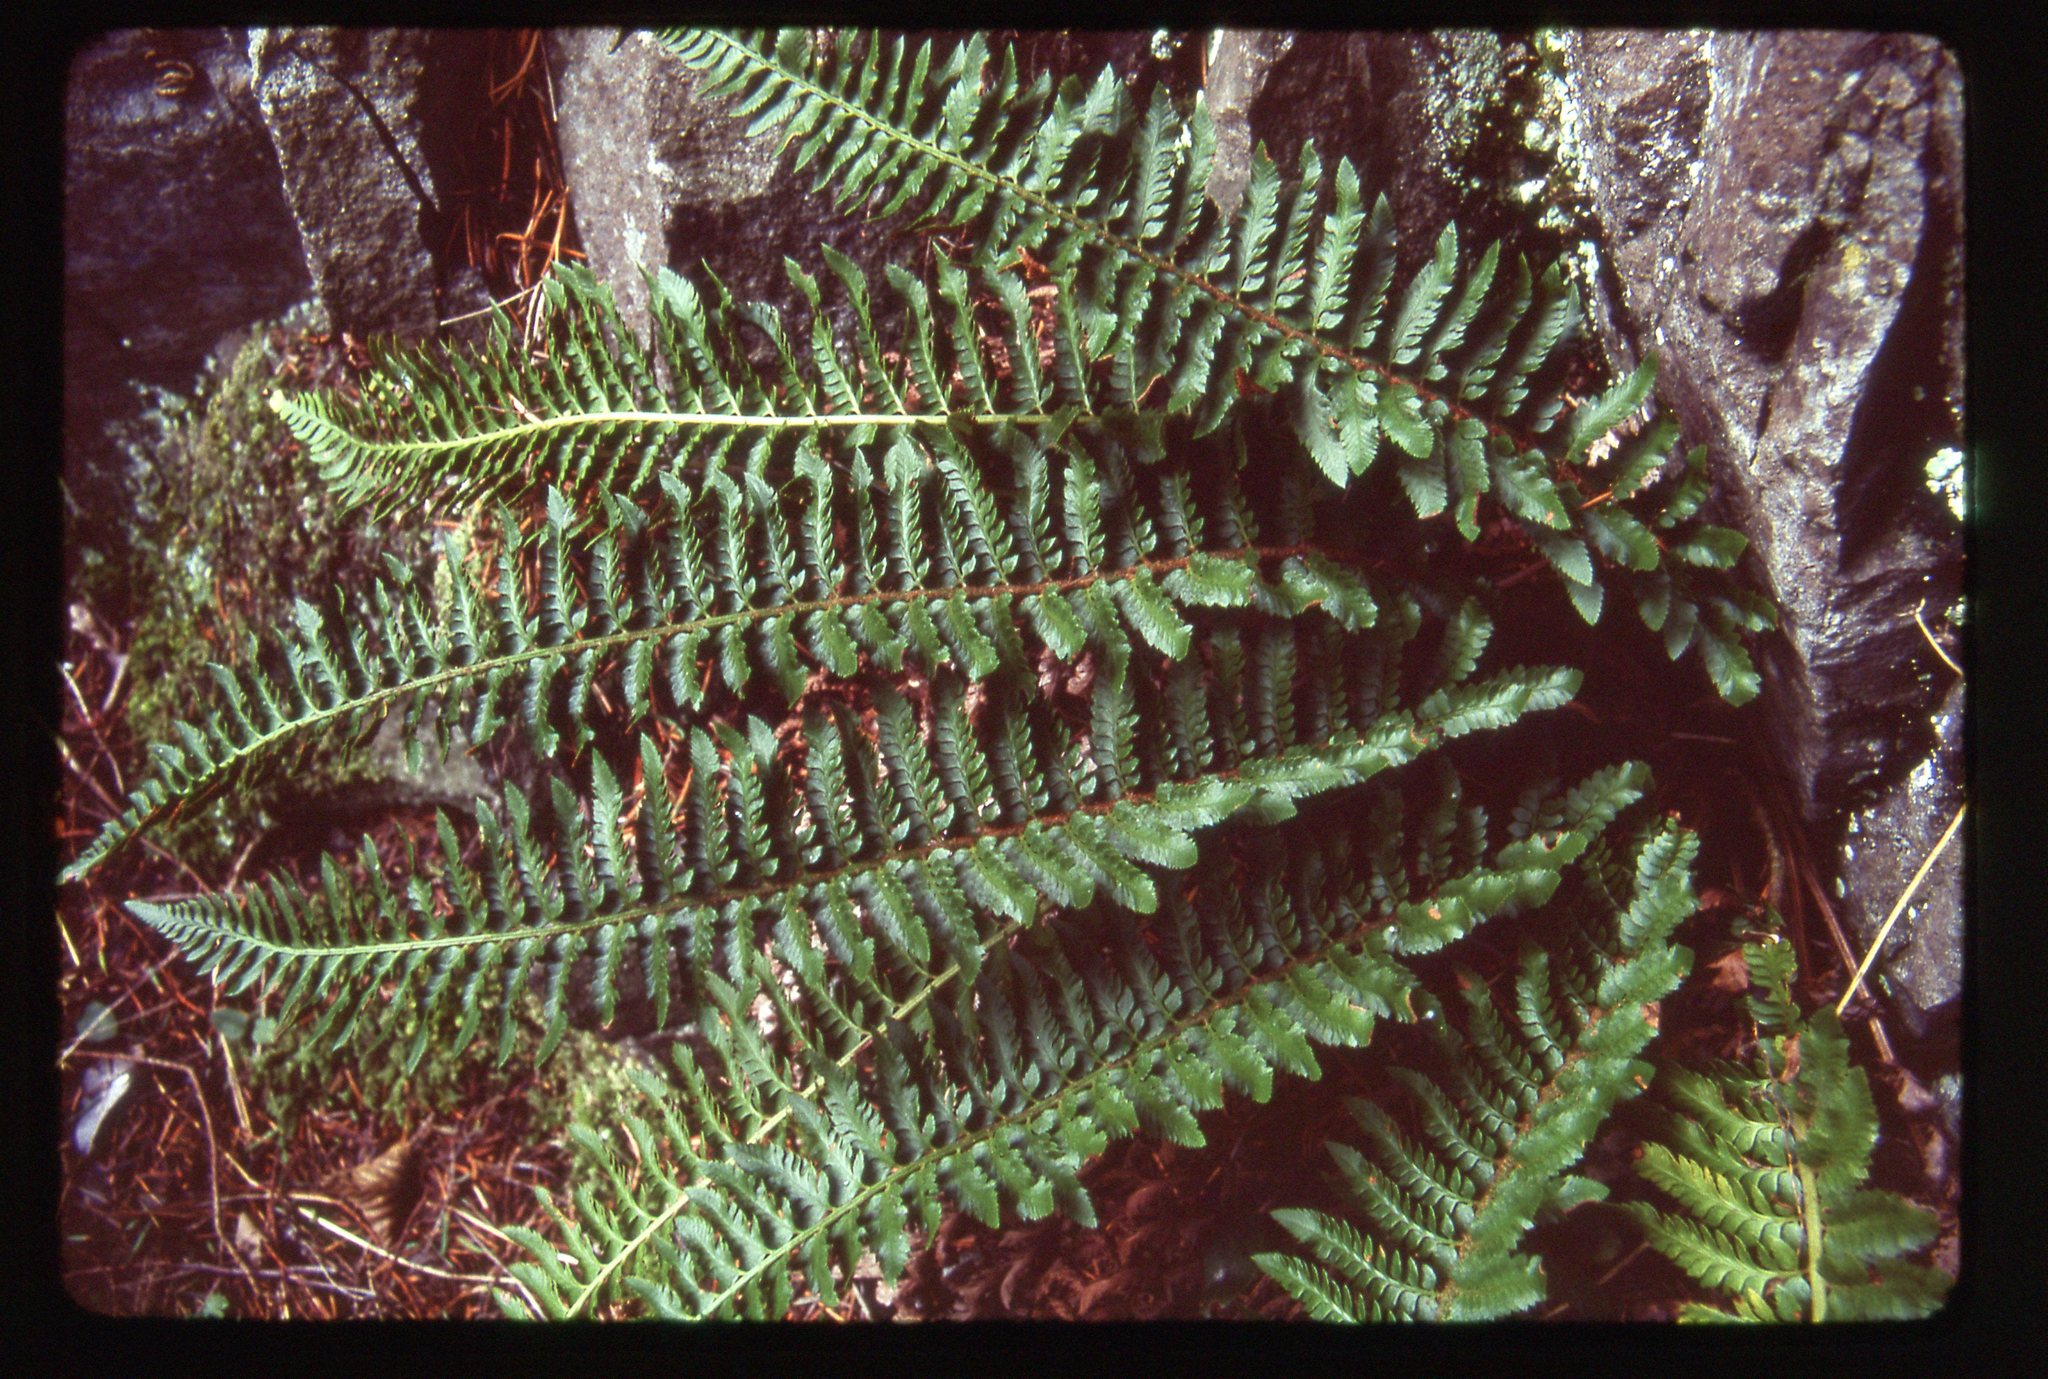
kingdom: Plantae
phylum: Tracheophyta
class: Polypodiopsida
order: Polypodiales
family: Dryopteridaceae
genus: Polystichum
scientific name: Polystichum californicum
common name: California sword fern
